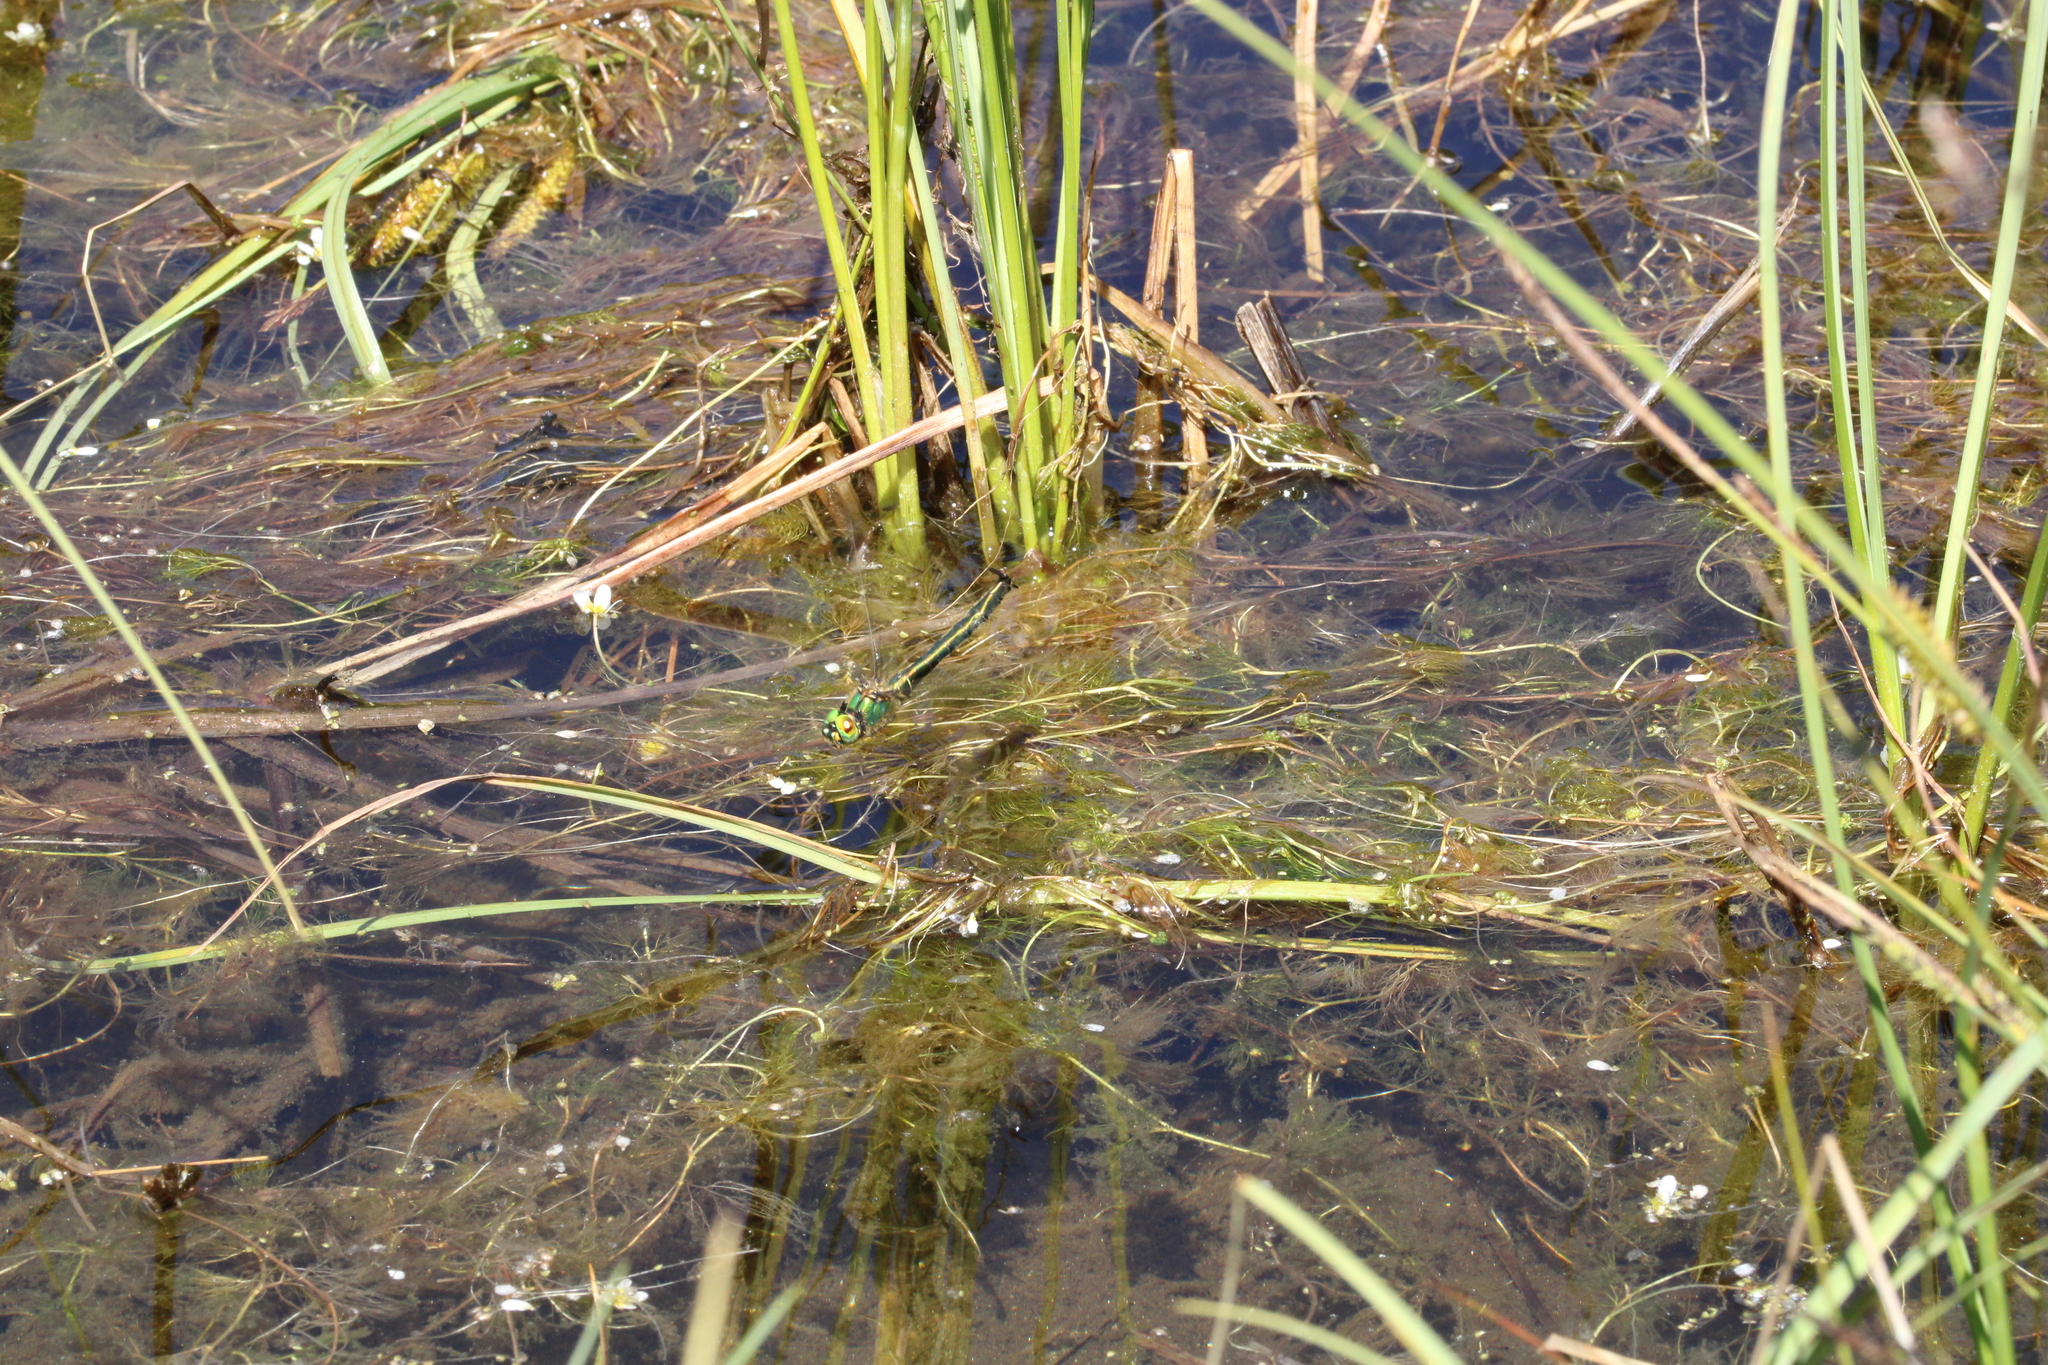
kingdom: Animalia
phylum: Arthropoda
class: Insecta
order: Odonata
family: Corduliidae
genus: Somatochlora
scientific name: Somatochlora metallica
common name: Brilliant emerald
